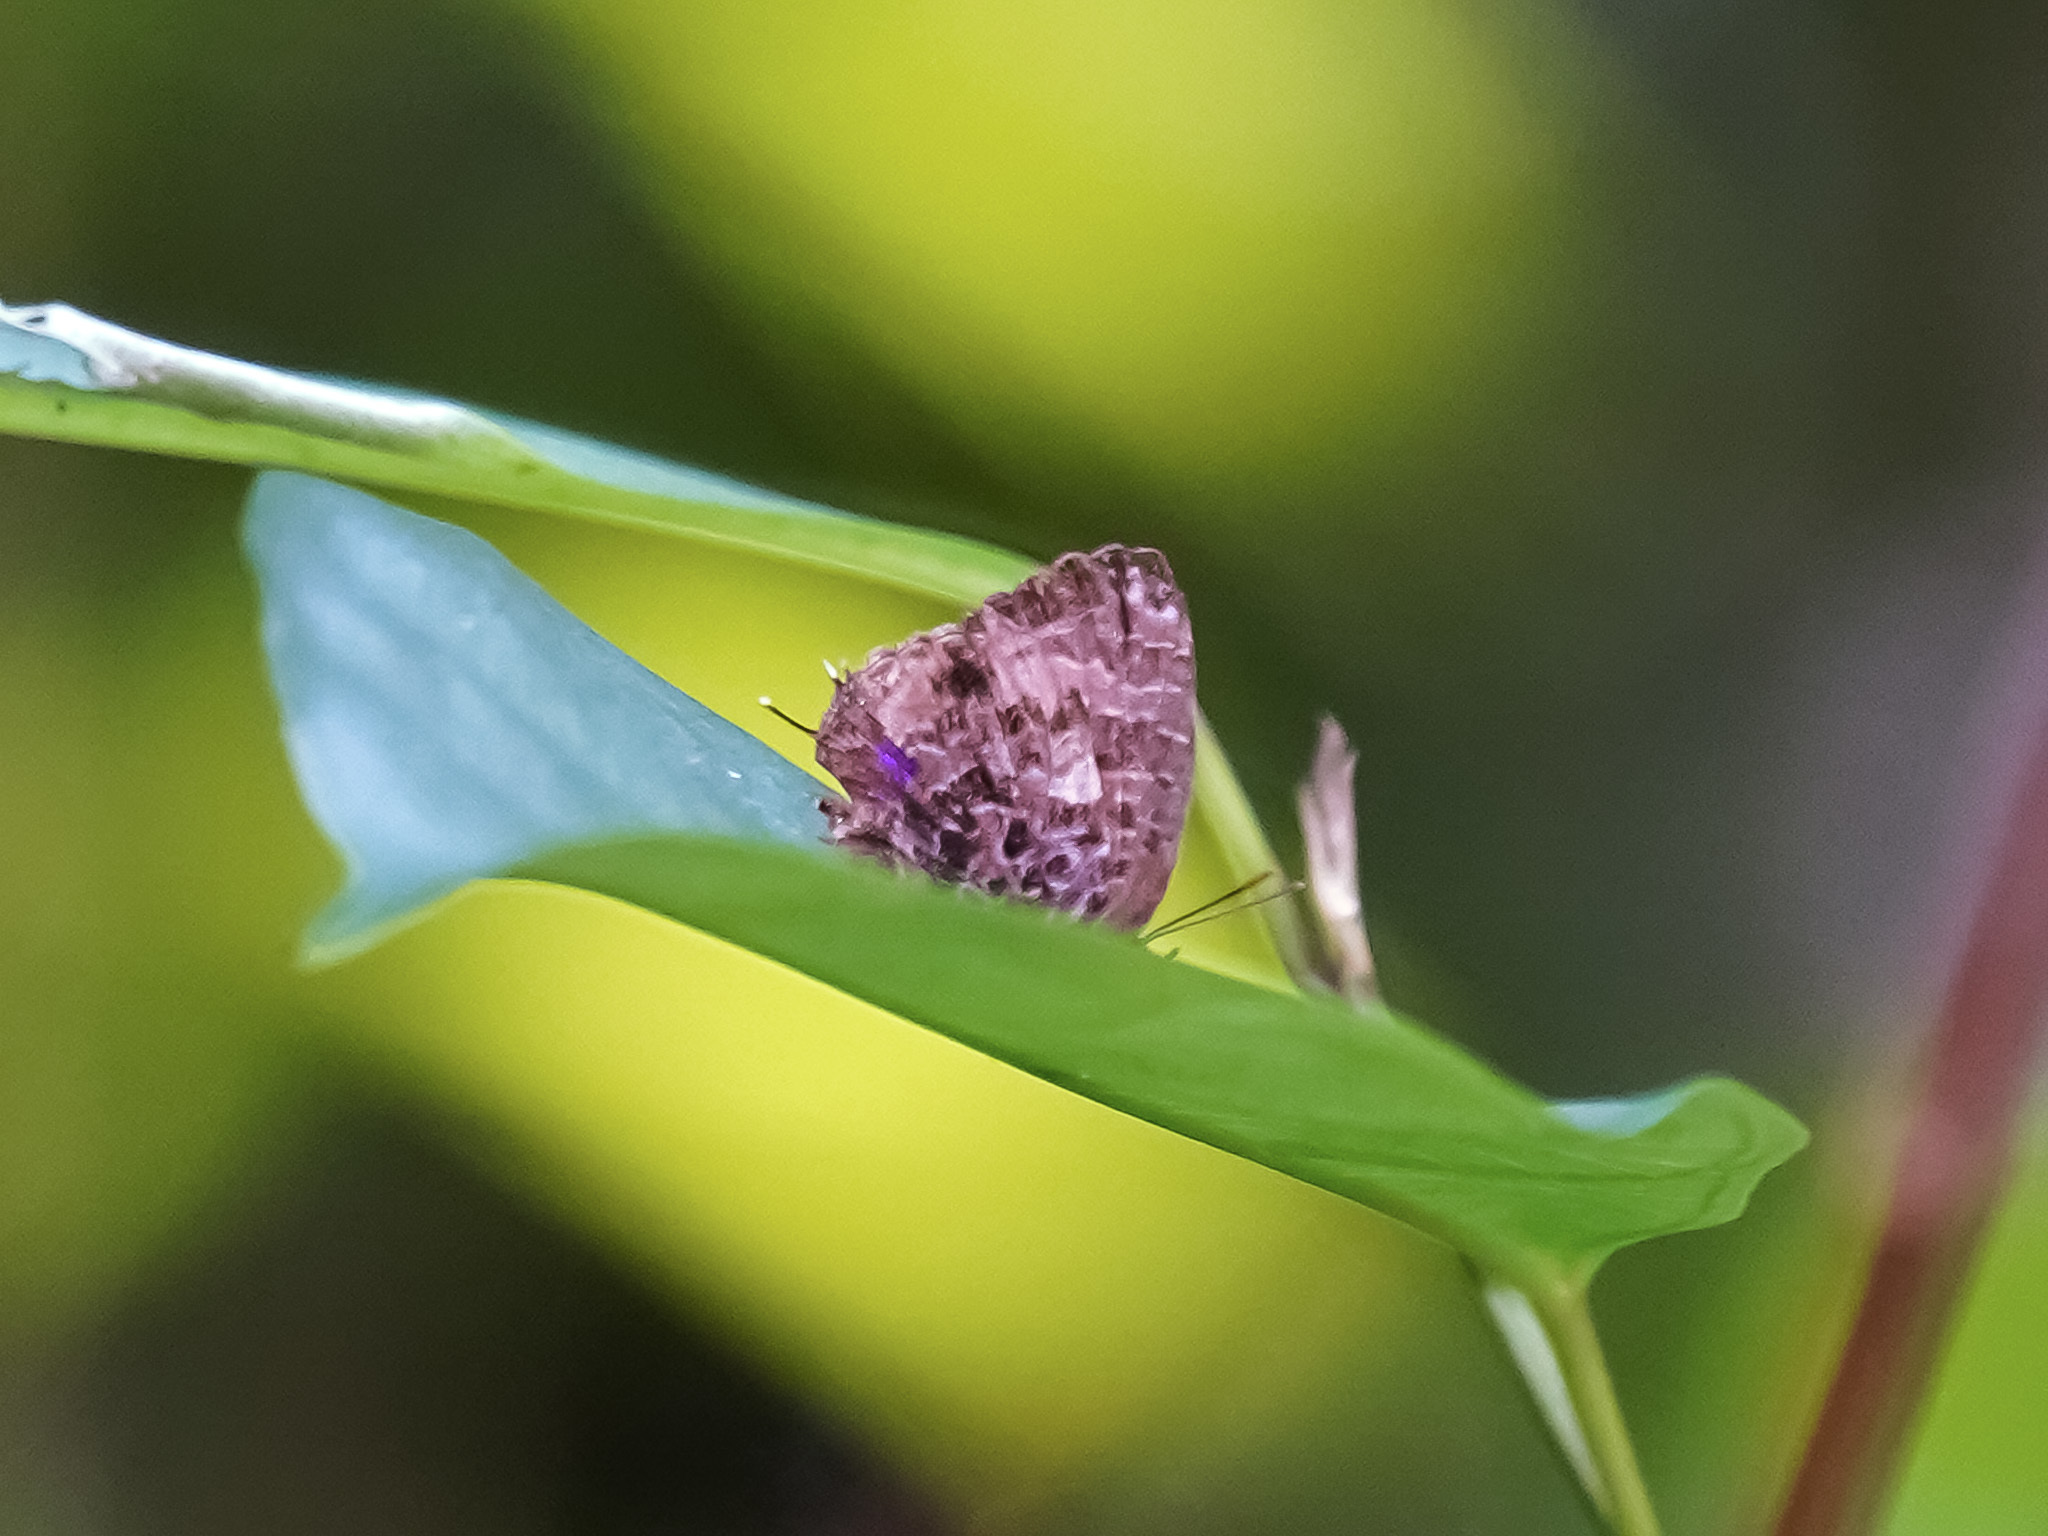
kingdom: Animalia
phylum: Arthropoda
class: Insecta
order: Lepidoptera
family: Lycaenidae
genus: Arhopala
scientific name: Arhopala abseus
